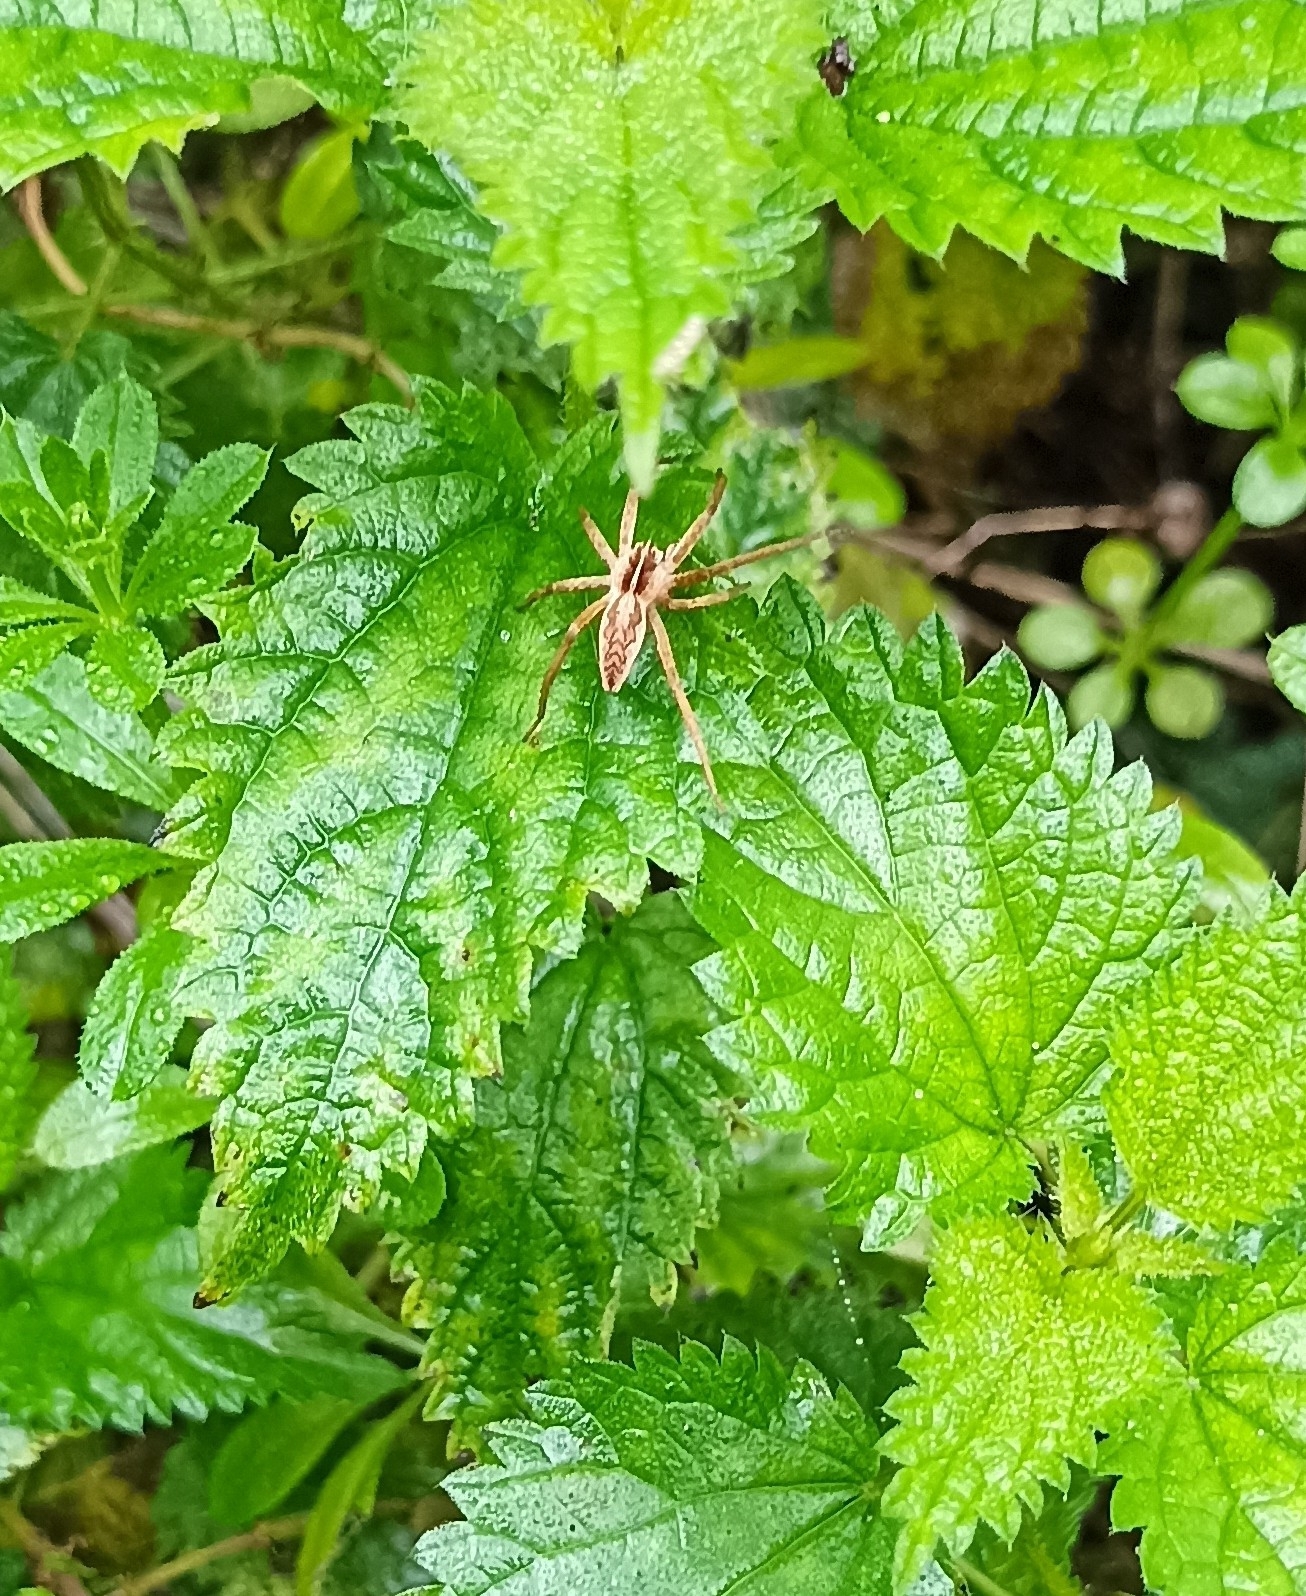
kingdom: Animalia
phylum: Arthropoda
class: Arachnida
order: Araneae
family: Pisauridae
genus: Pisaura
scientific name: Pisaura mirabilis
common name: Tent spider
